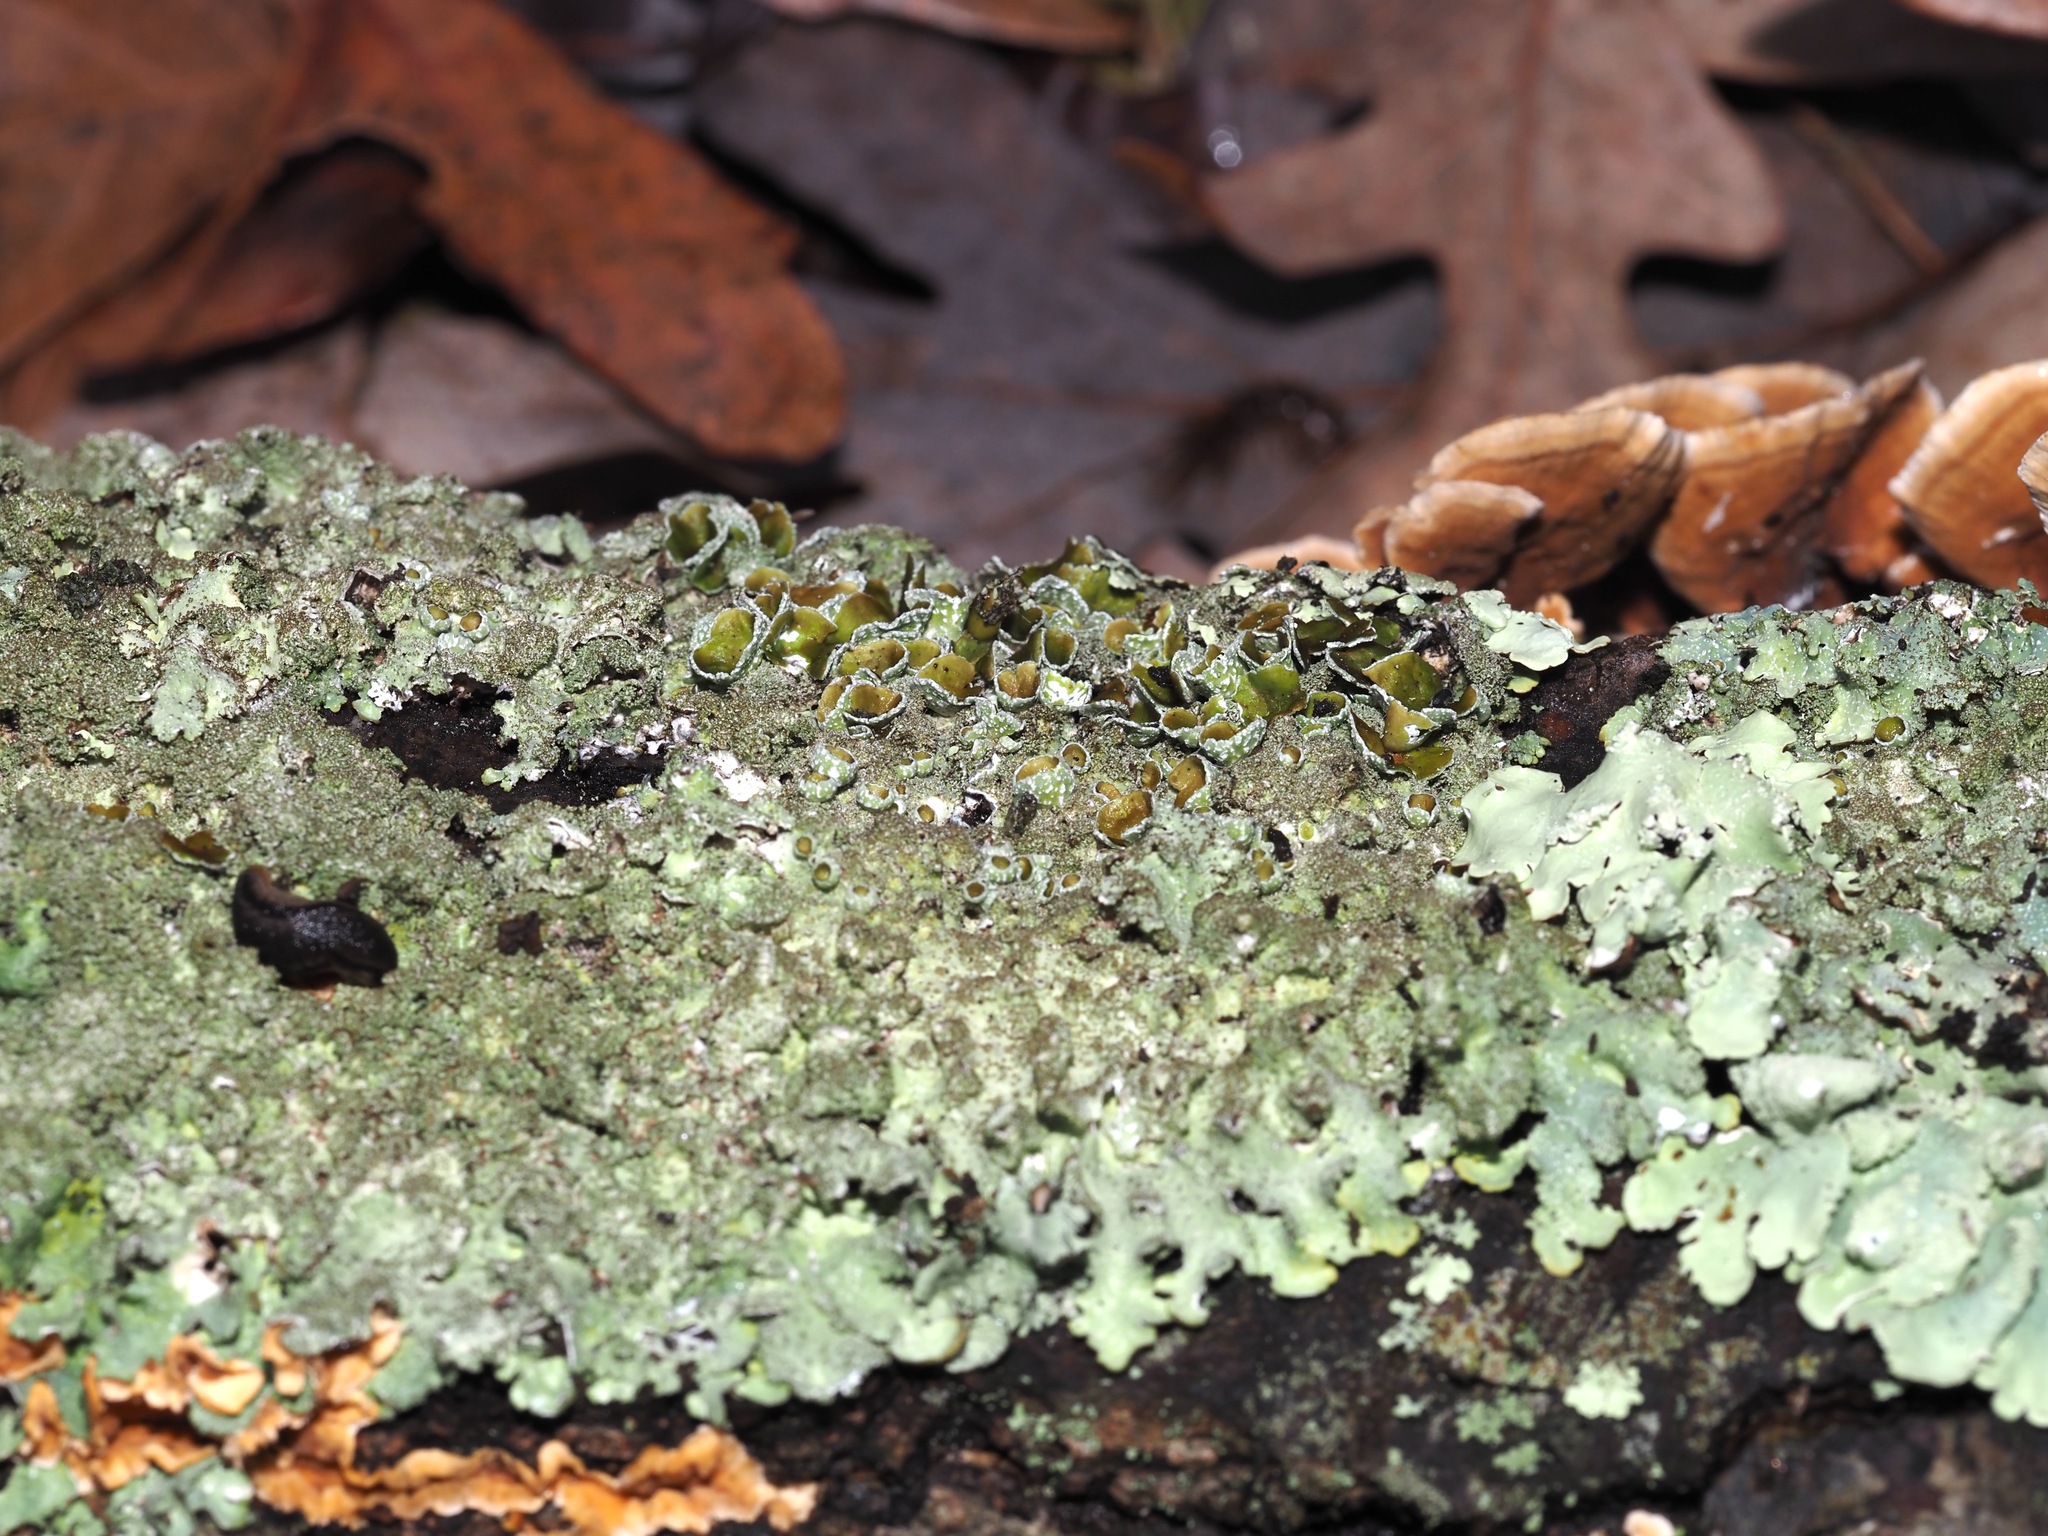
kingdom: Fungi
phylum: Ascomycota
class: Lecanoromycetes
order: Lecanorales
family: Parmeliaceae
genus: Punctelia
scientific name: Punctelia rudecta
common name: Rough speckled shield lichen
